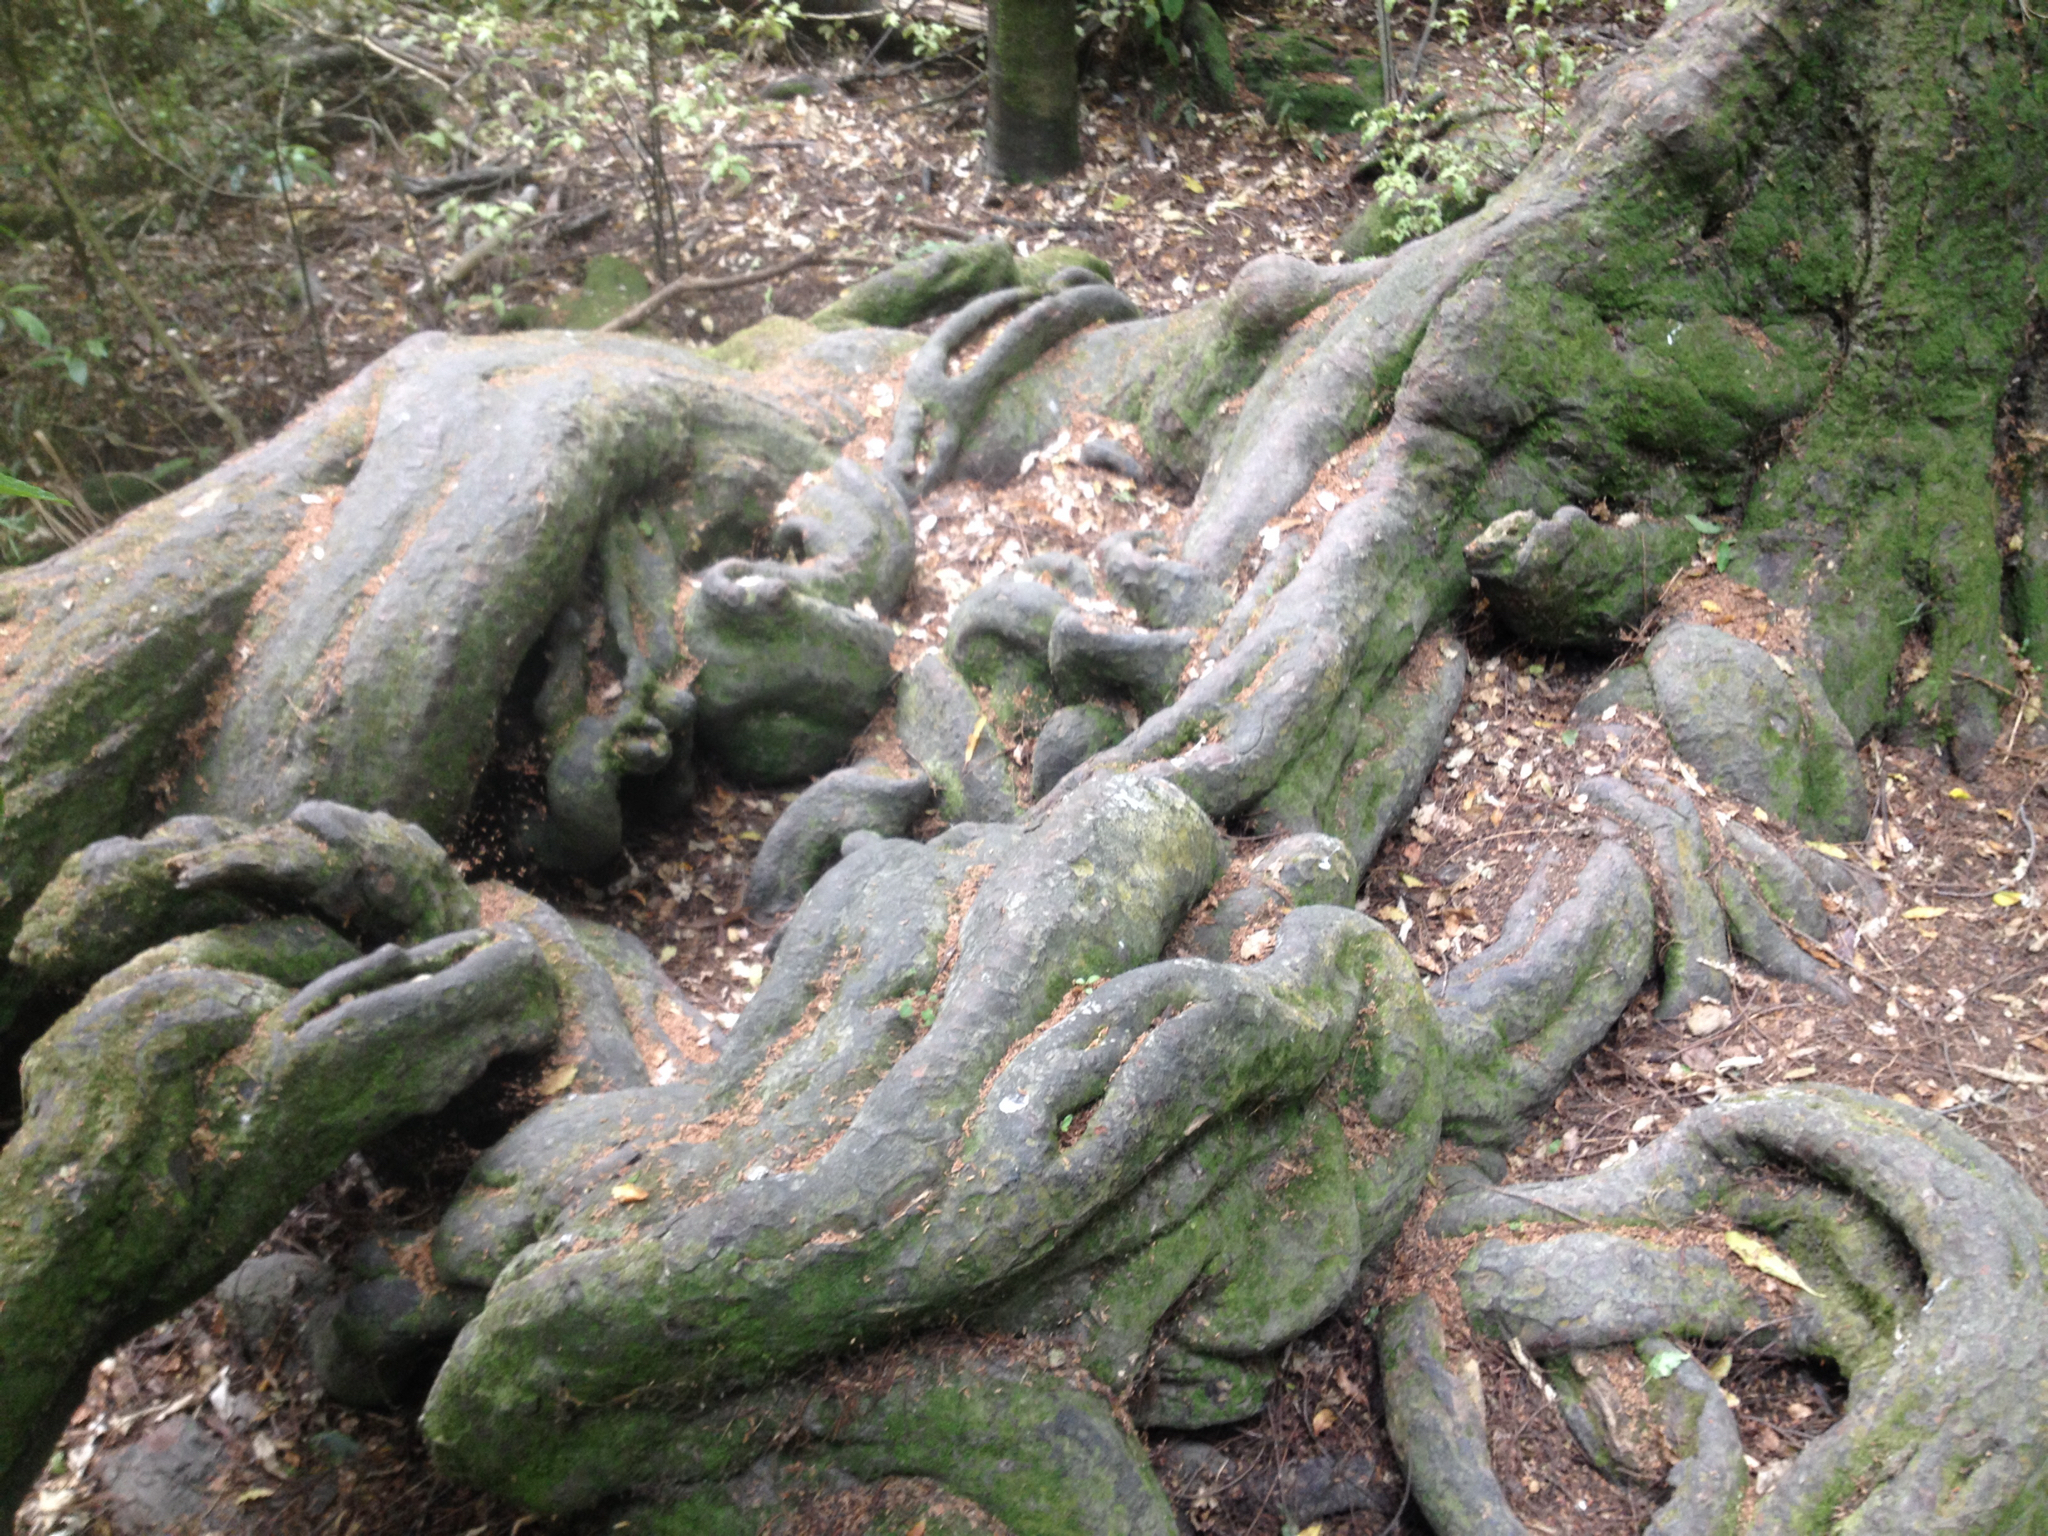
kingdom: Plantae
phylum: Tracheophyta
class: Pinopsida
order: Pinales
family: Podocarpaceae
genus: Dacrycarpus
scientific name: Dacrycarpus dacrydioides
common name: White pine
